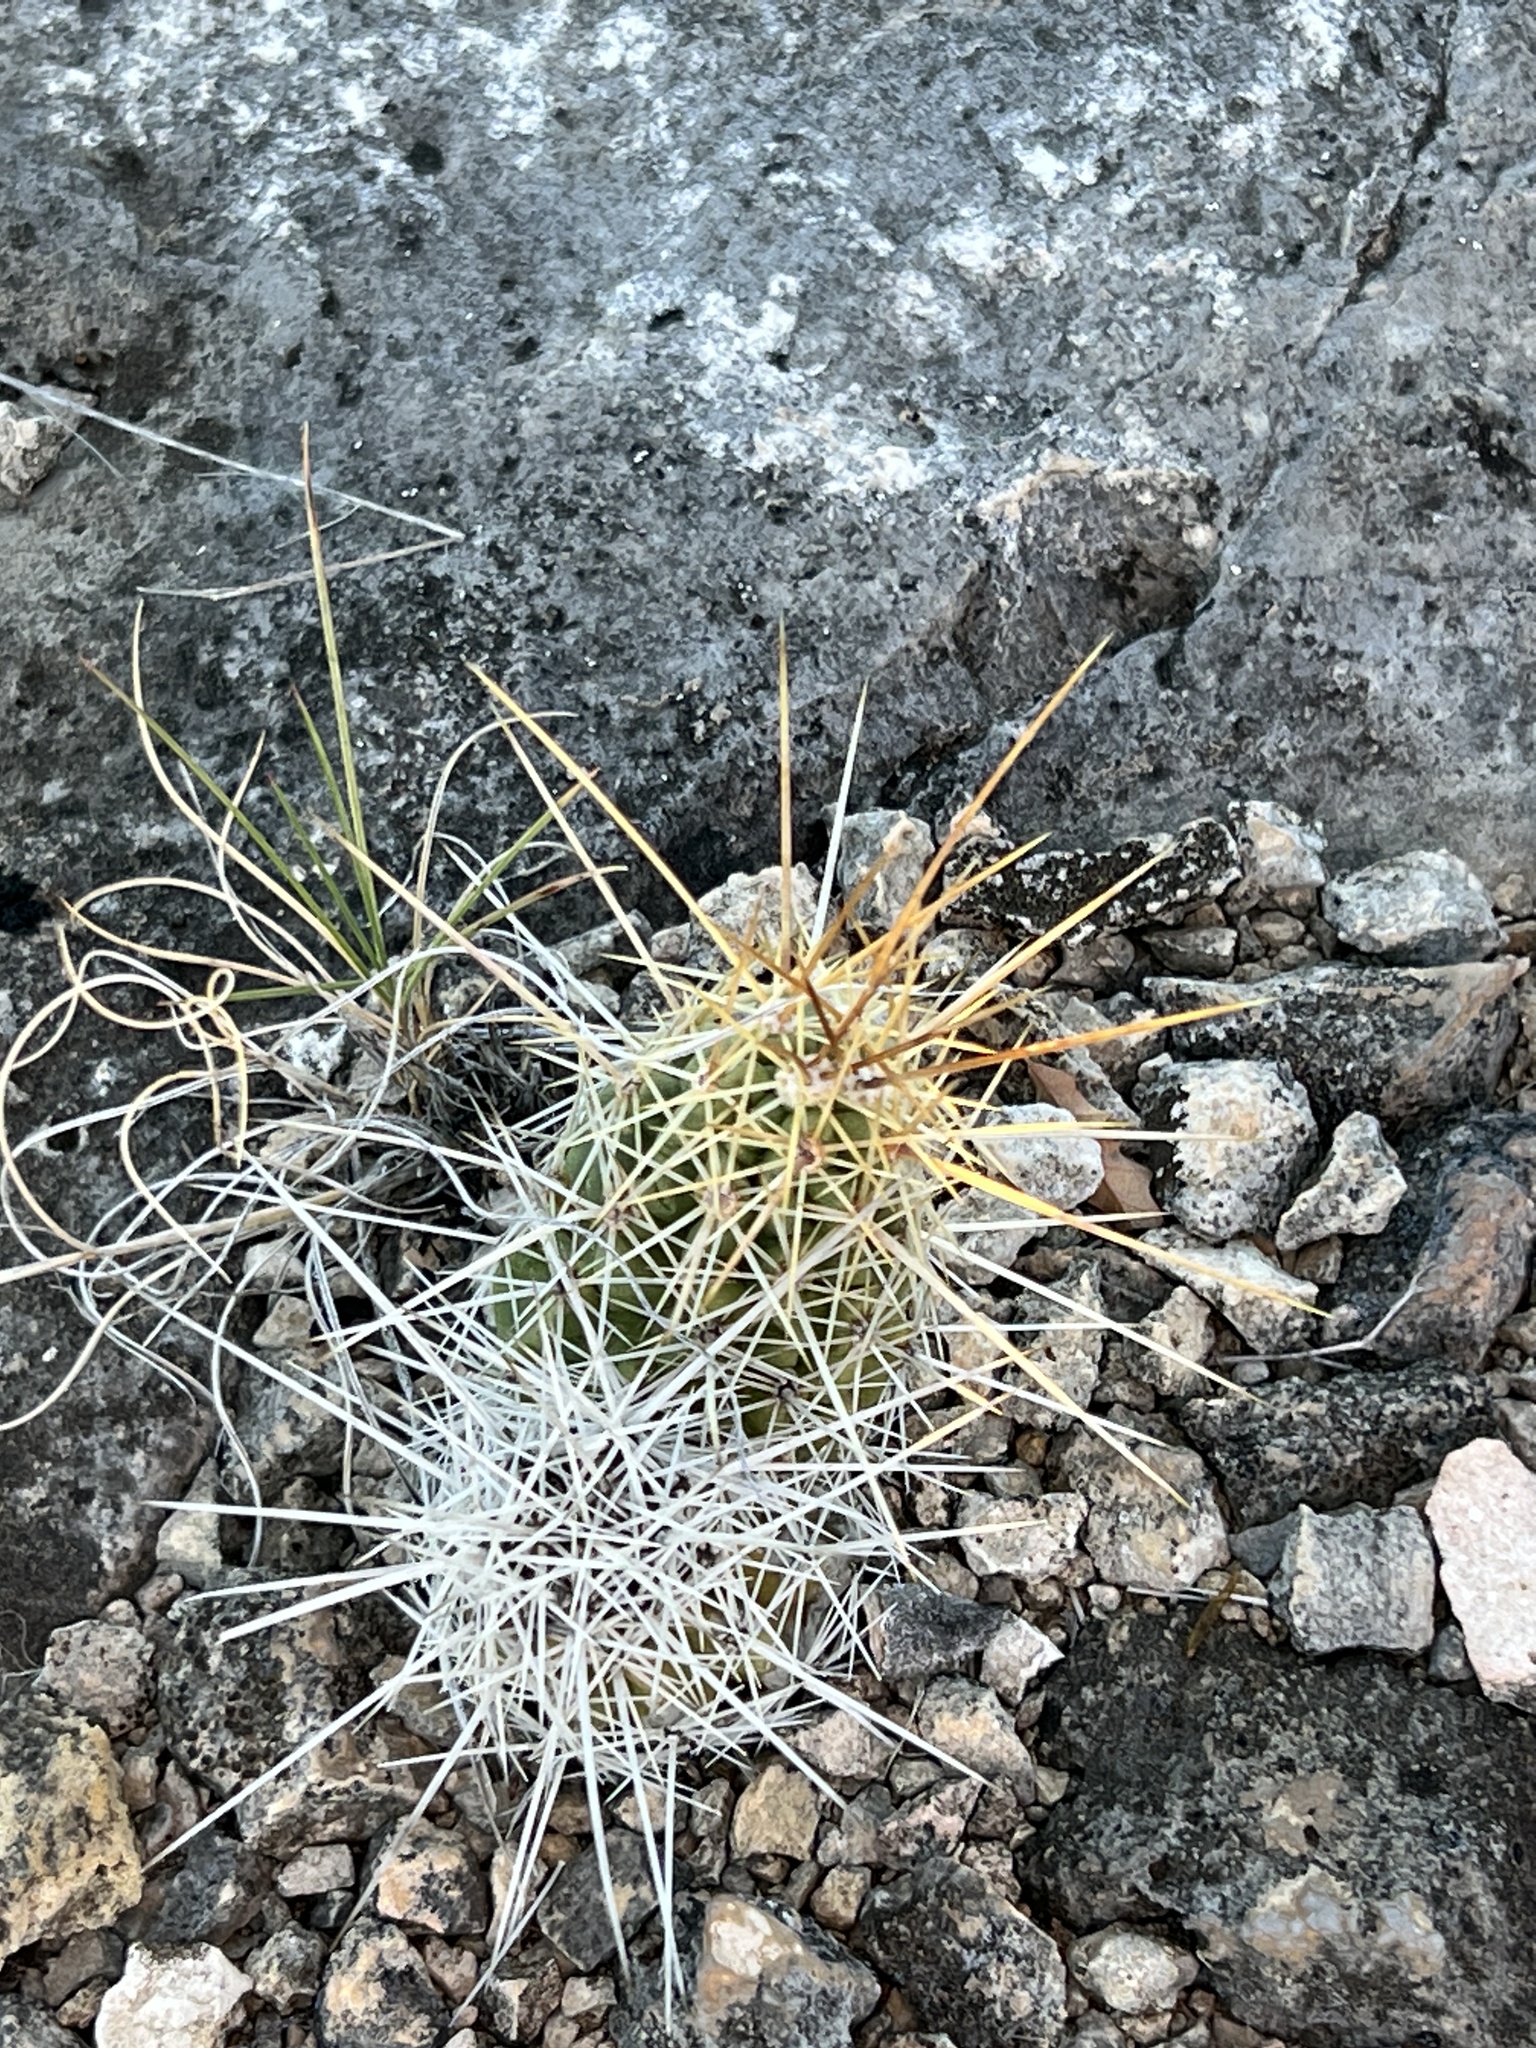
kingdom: Plantae
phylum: Tracheophyta
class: Magnoliopsida
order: Caryophyllales
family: Cactaceae
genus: Echinocereus
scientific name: Echinocereus enneacanthus
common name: Pitaya
